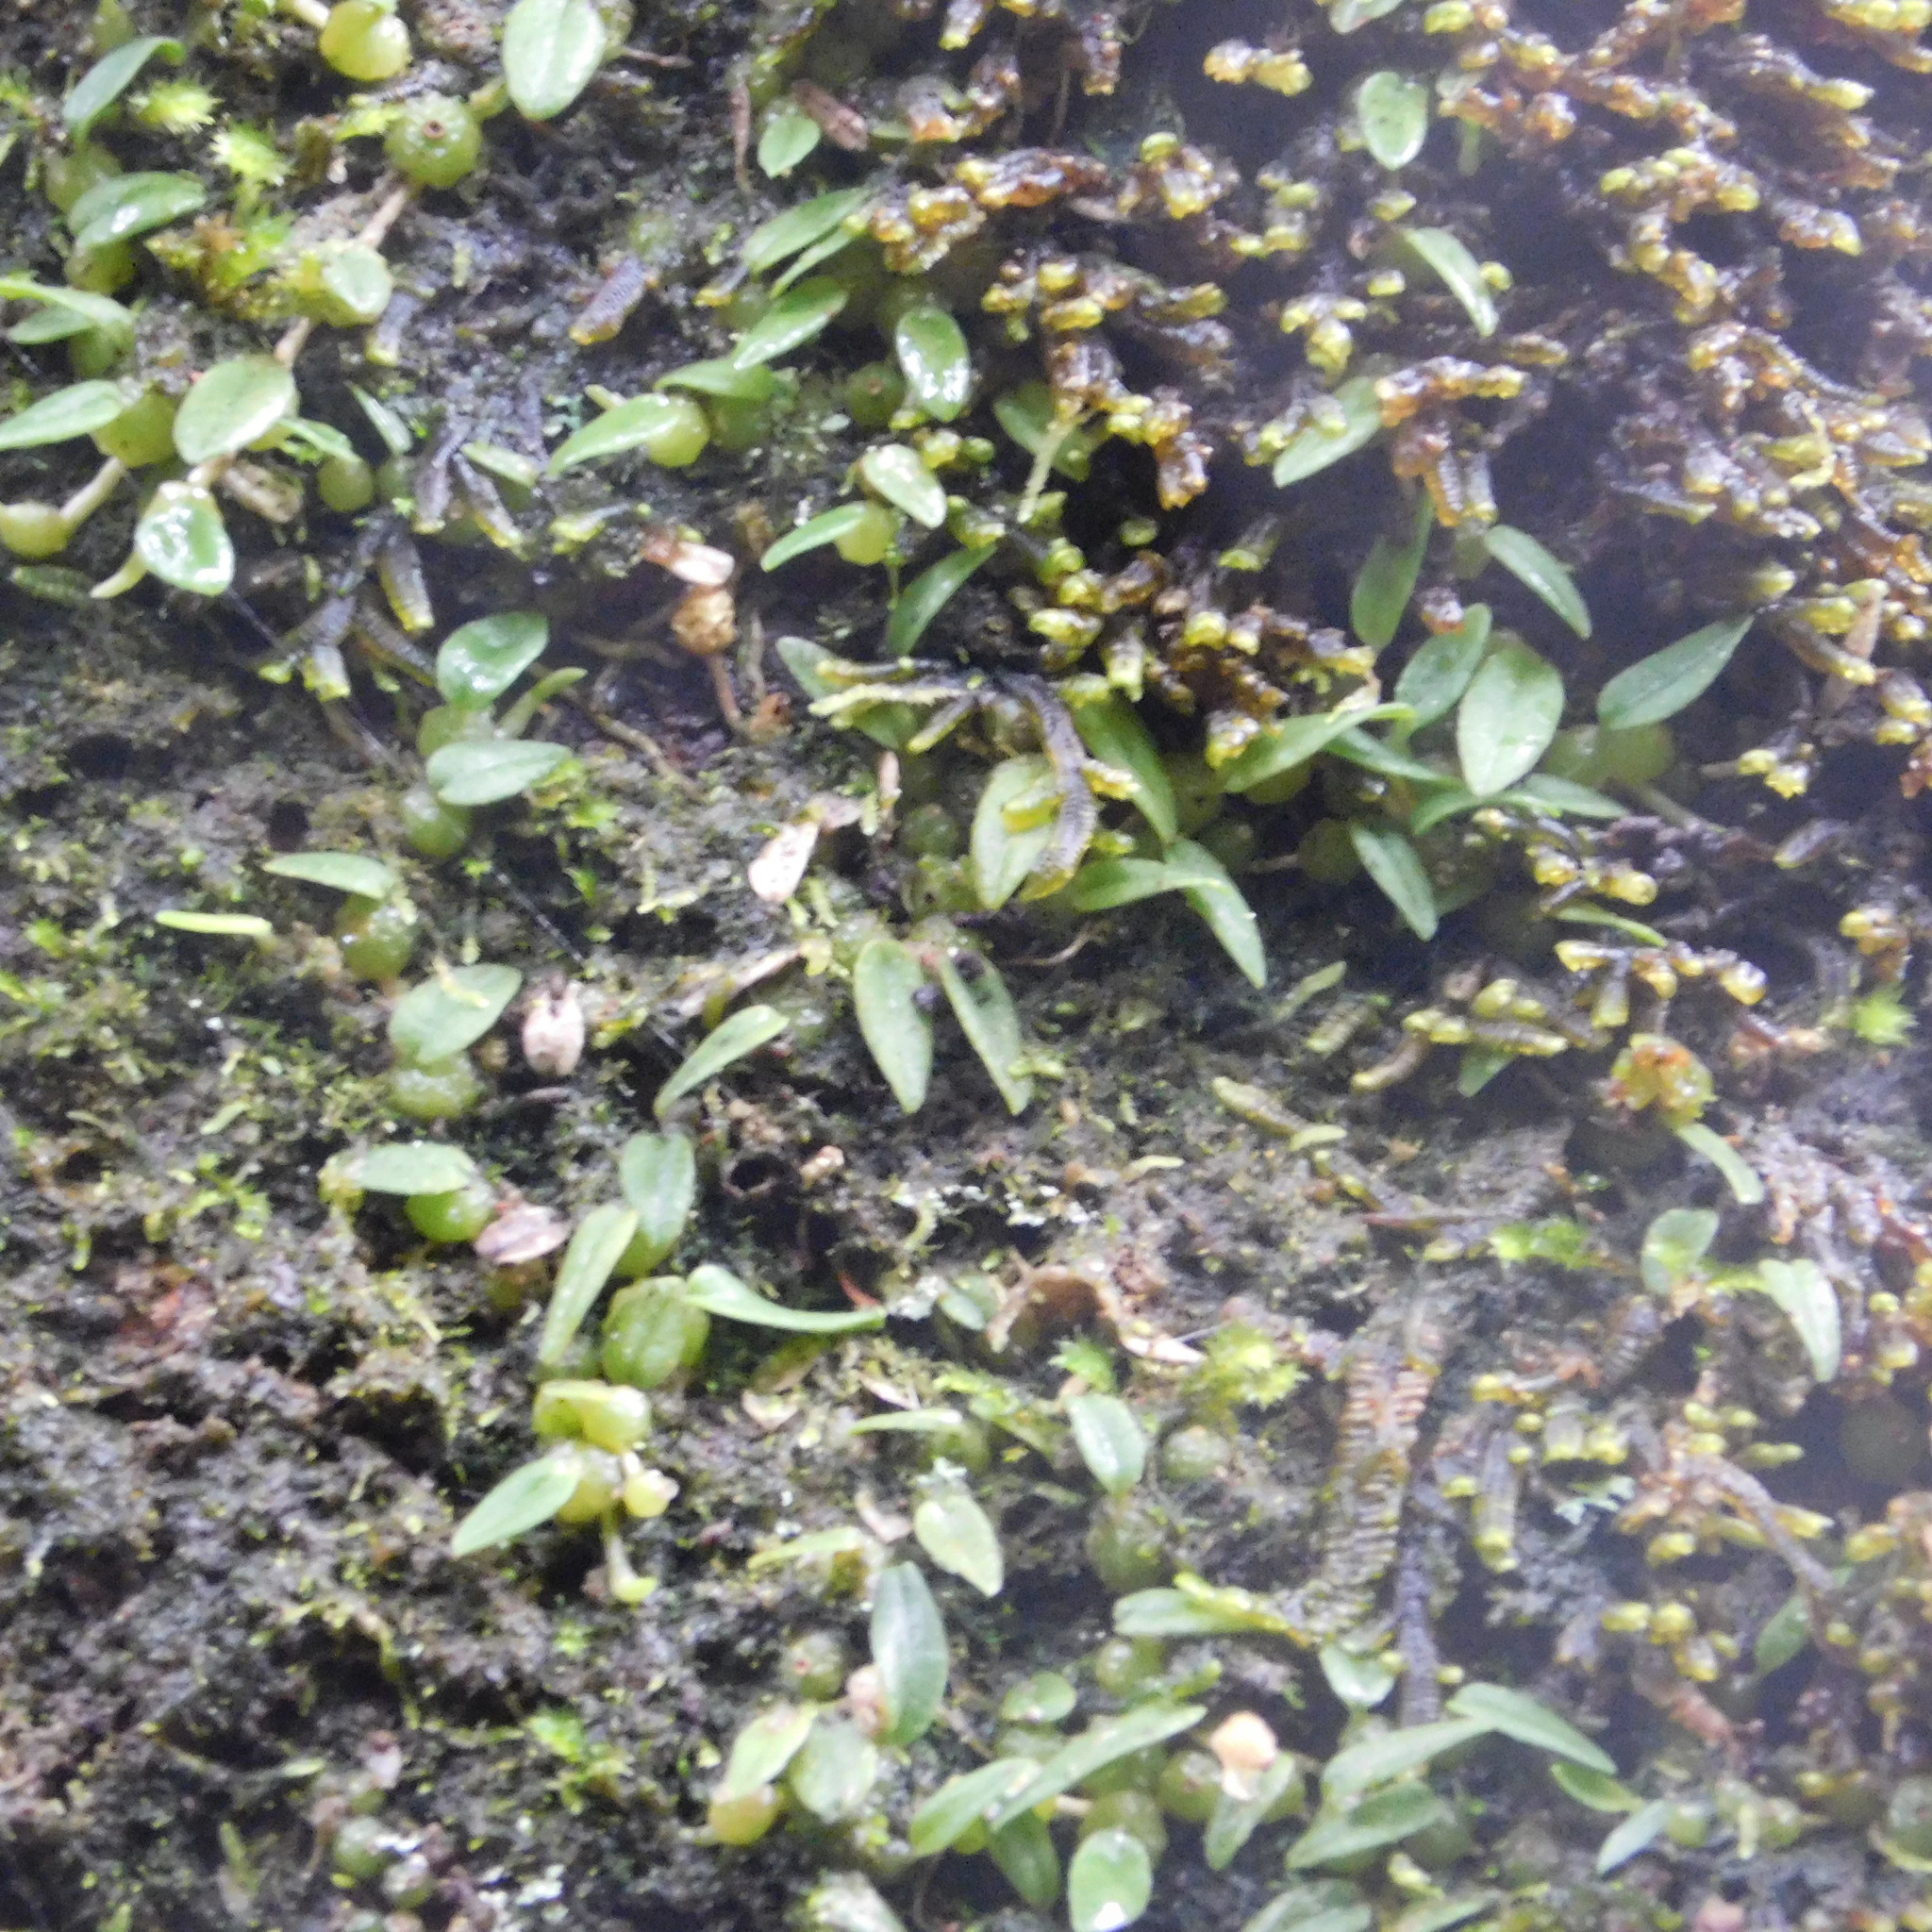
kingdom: Plantae
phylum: Tracheophyta
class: Liliopsida
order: Asparagales
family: Orchidaceae
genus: Bulbophyllum
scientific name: Bulbophyllum pygmaeum
